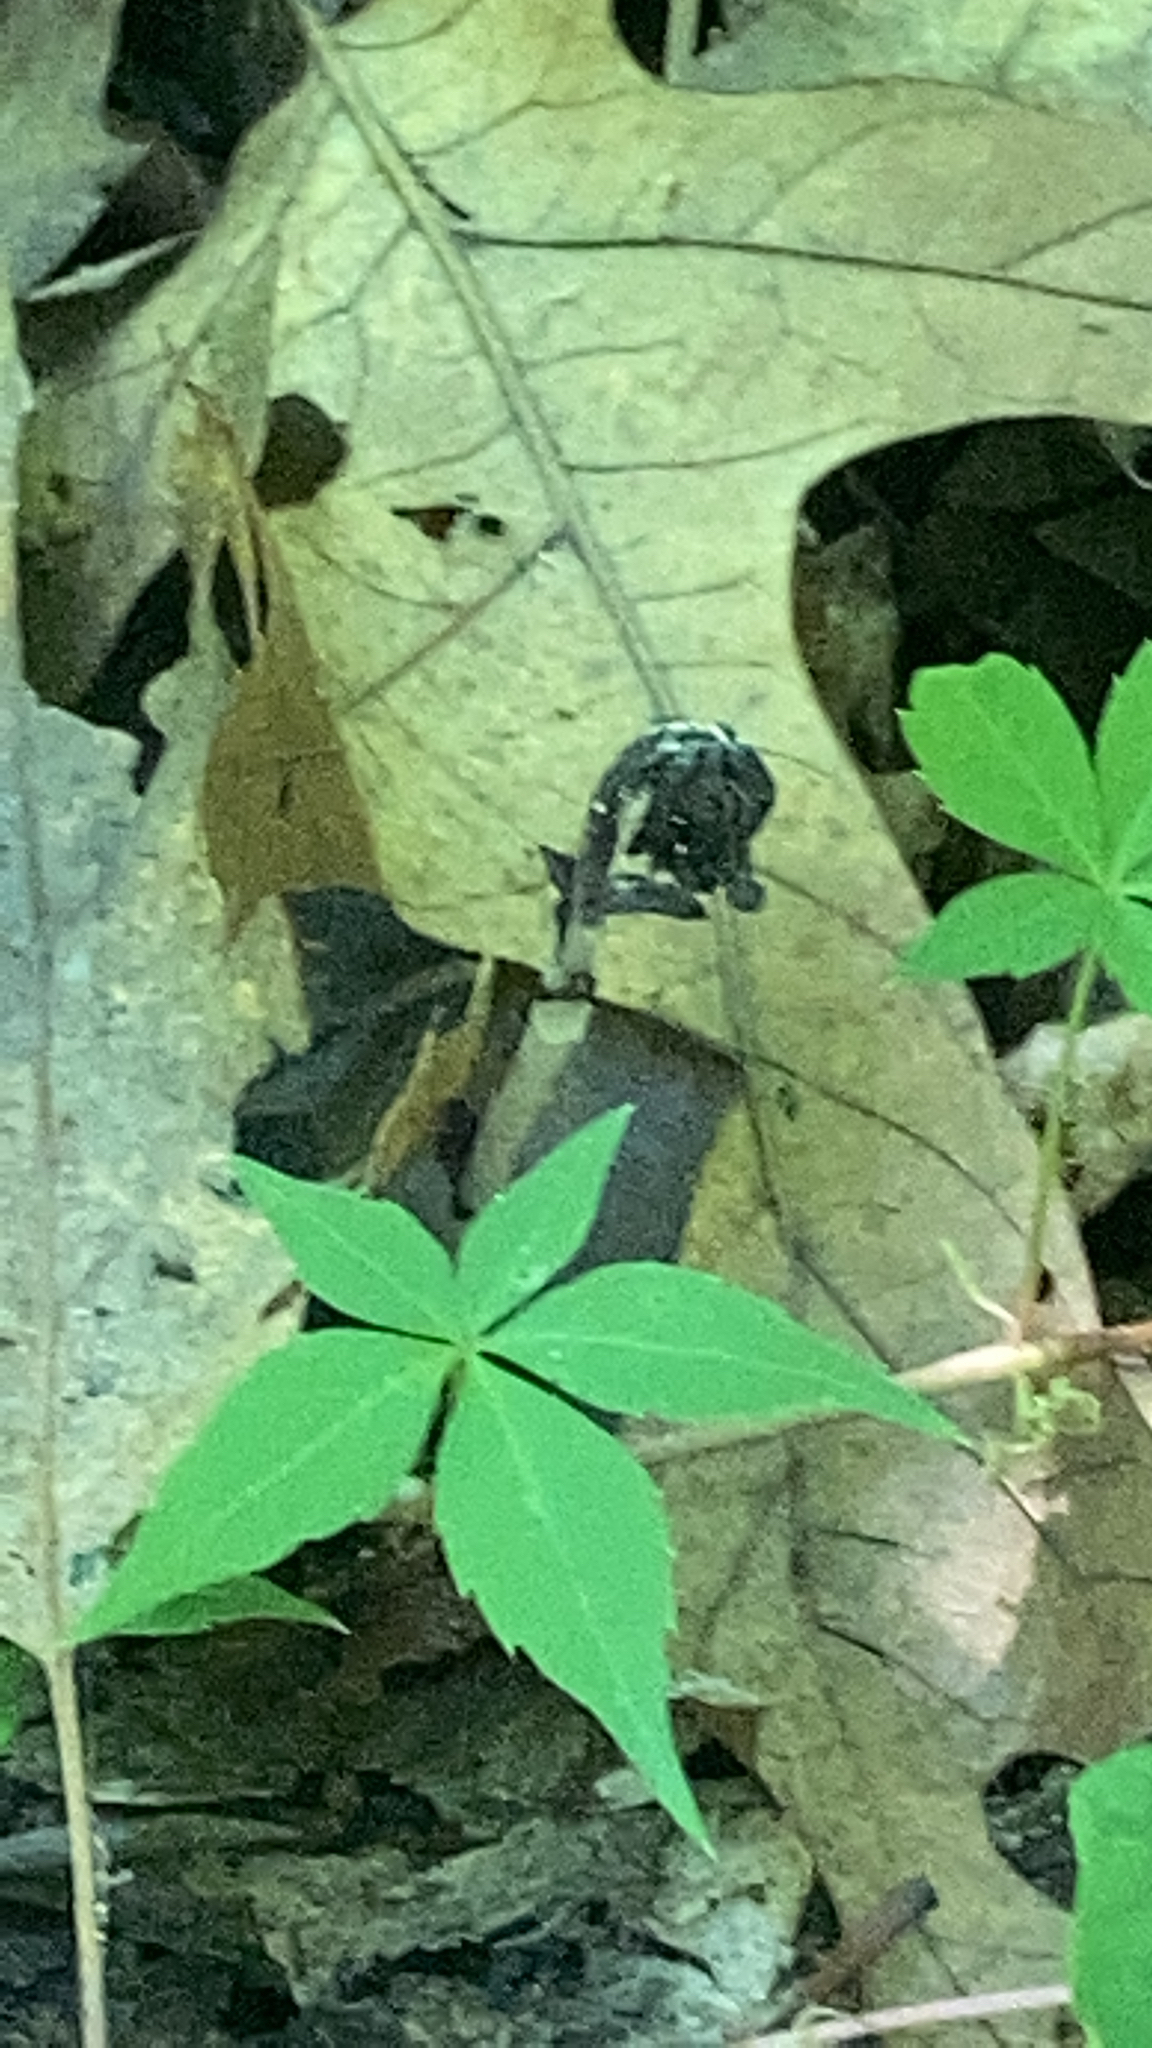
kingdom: Plantae
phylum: Tracheophyta
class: Magnoliopsida
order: Ericales
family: Ericaceae
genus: Monotropa
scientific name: Monotropa uniflora
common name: Convulsion root
